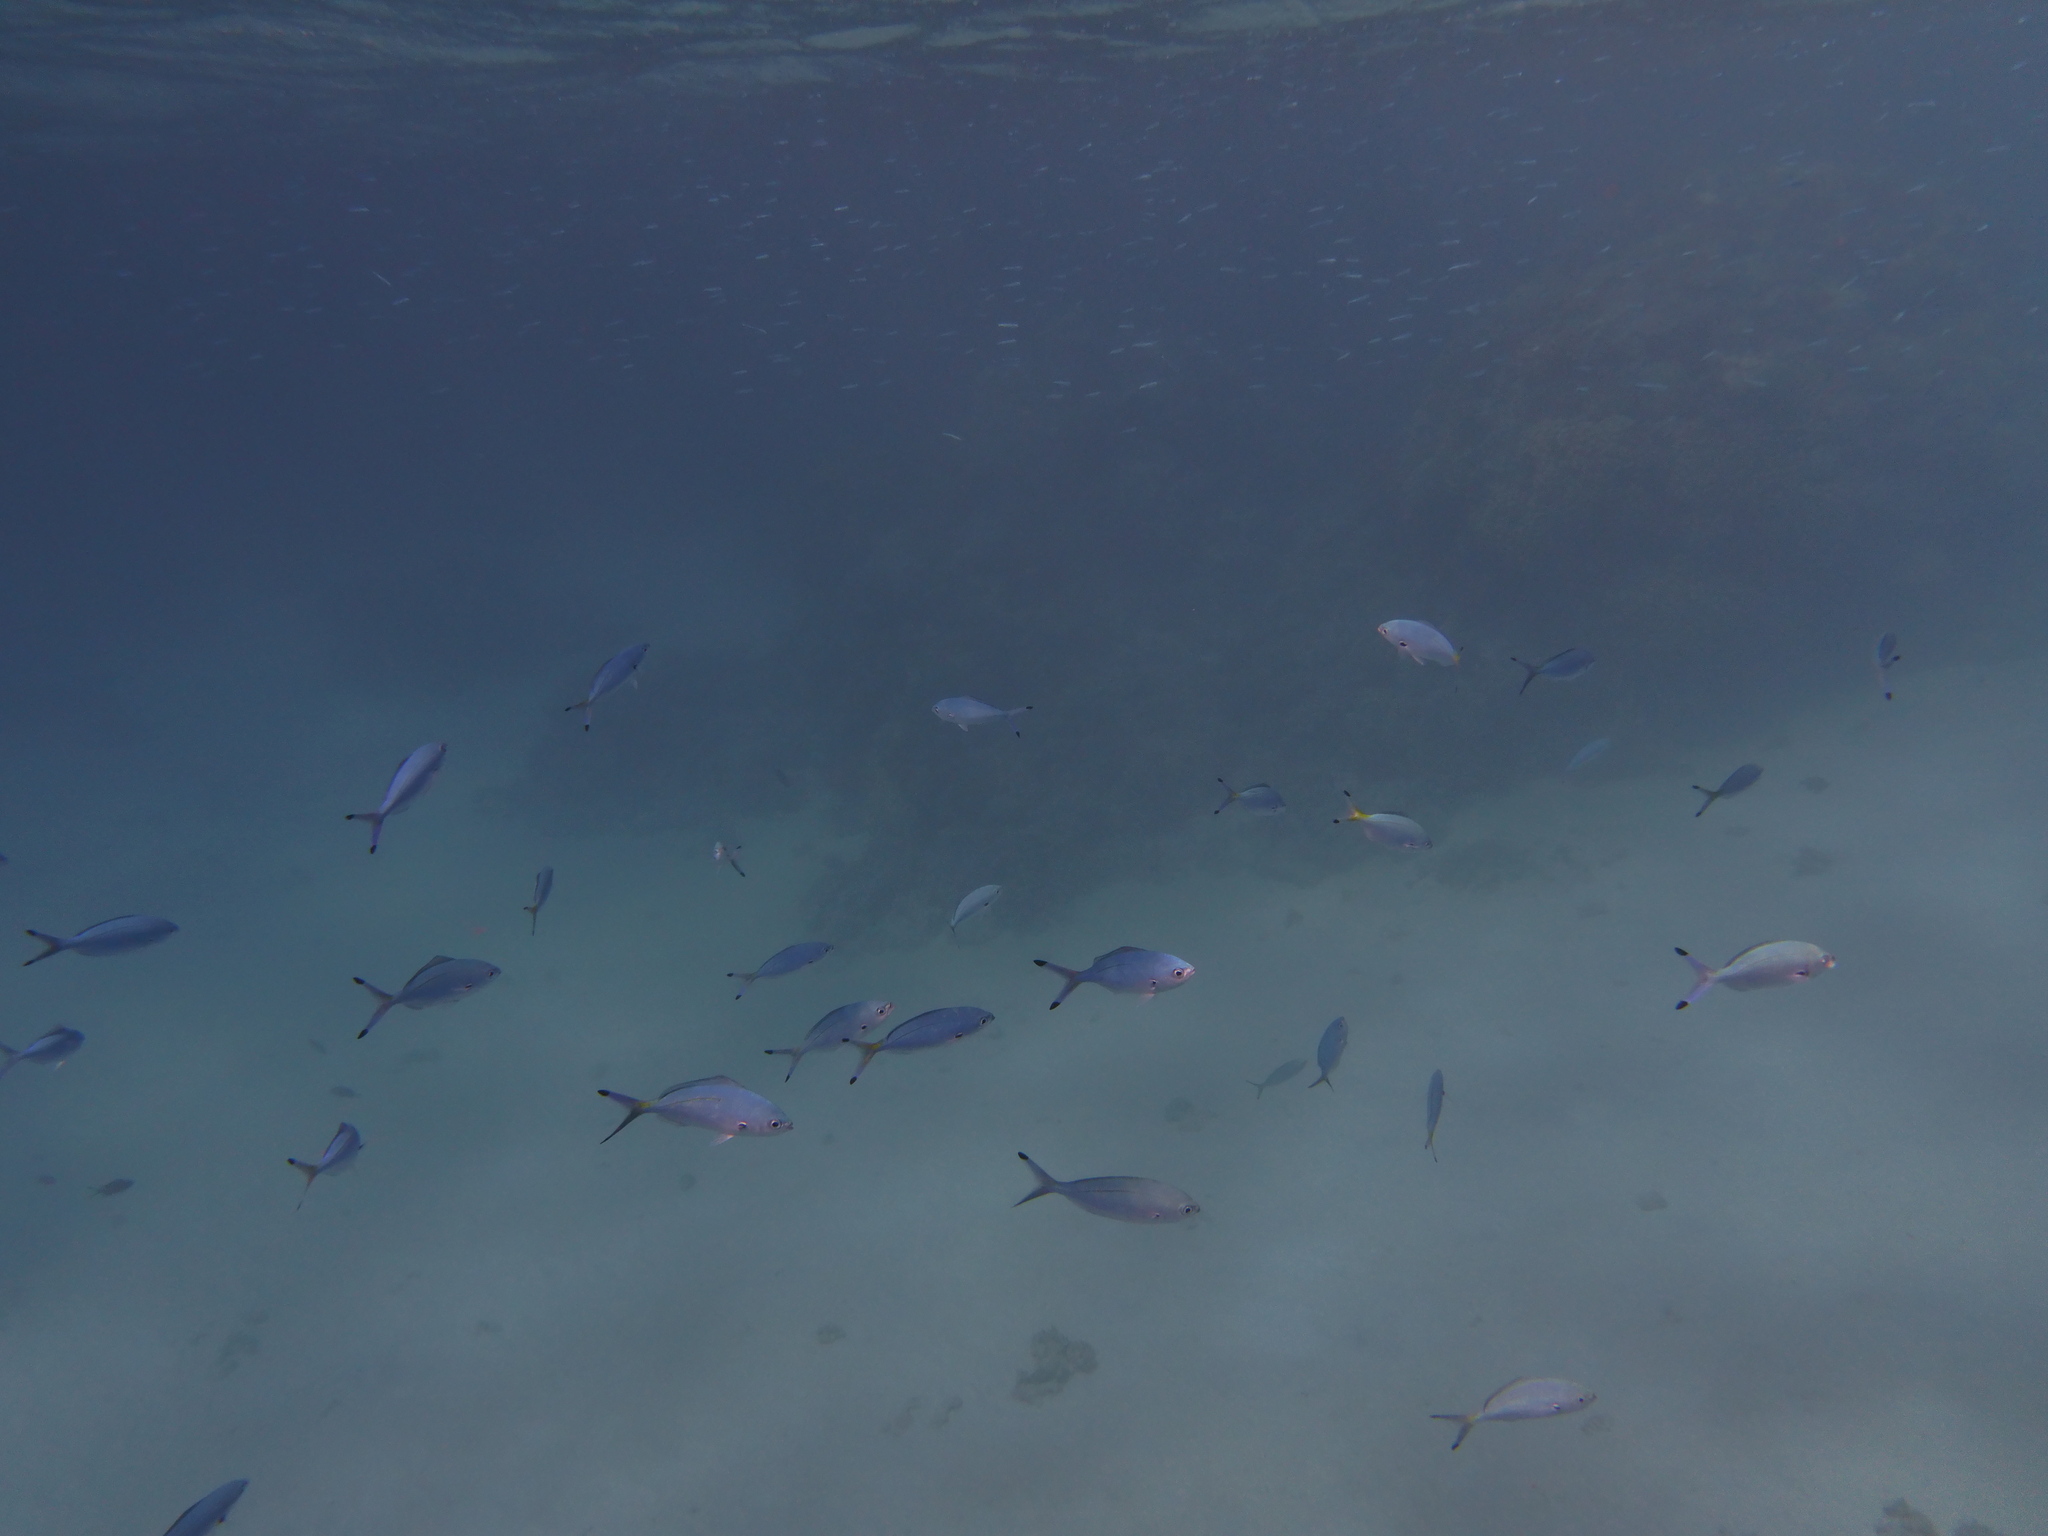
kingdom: Animalia
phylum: Chordata
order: Perciformes
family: Caesionidae
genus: Caesio
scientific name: Caesio lunaris
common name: Blue fusilier
